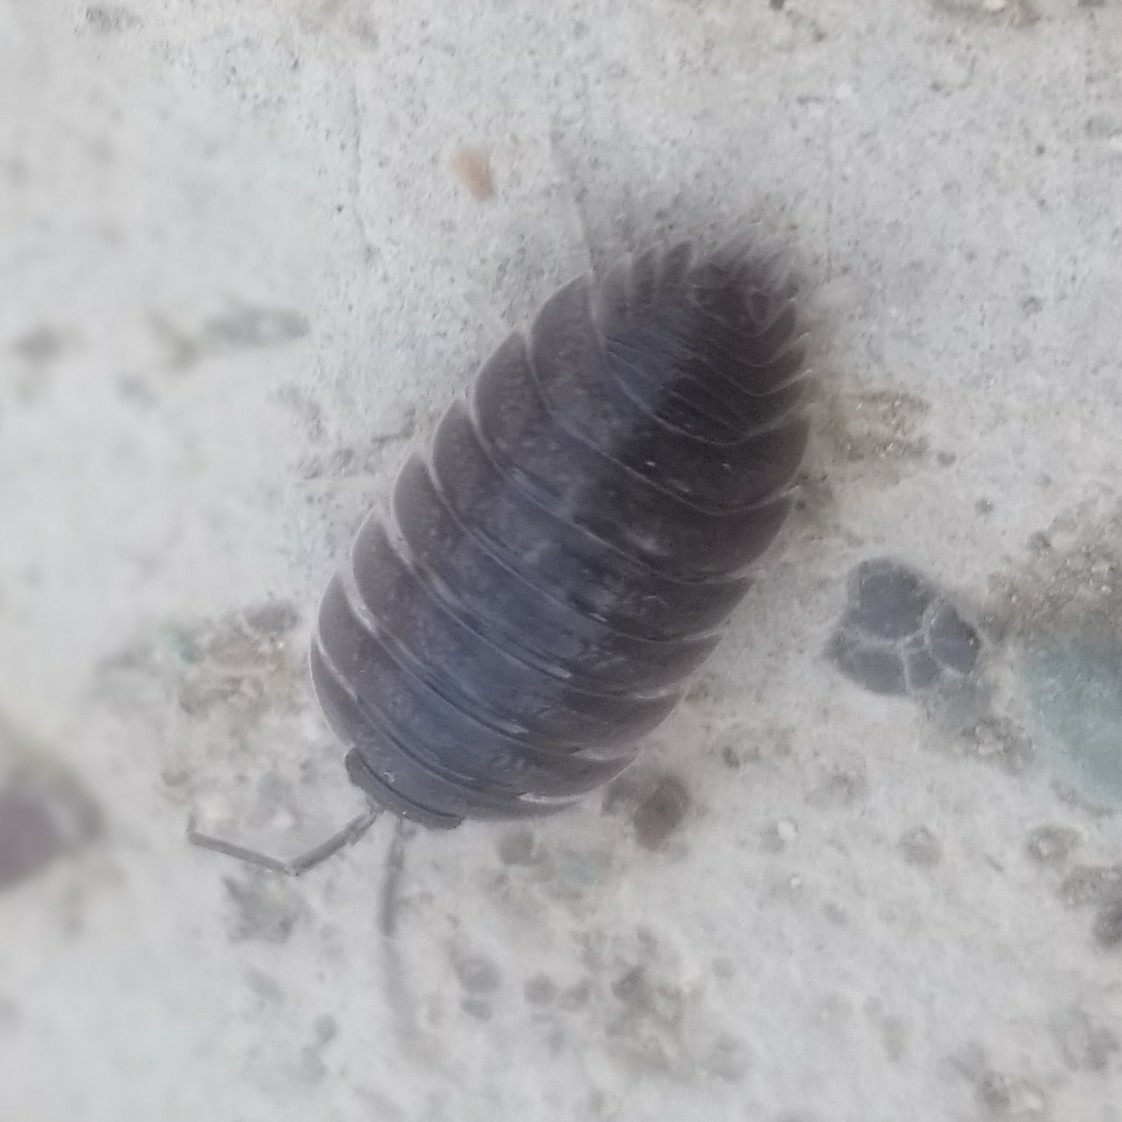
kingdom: Animalia
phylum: Arthropoda
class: Malacostraca
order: Isopoda
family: Porcellionidae
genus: Porcellio
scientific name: Porcellio obsoletus
